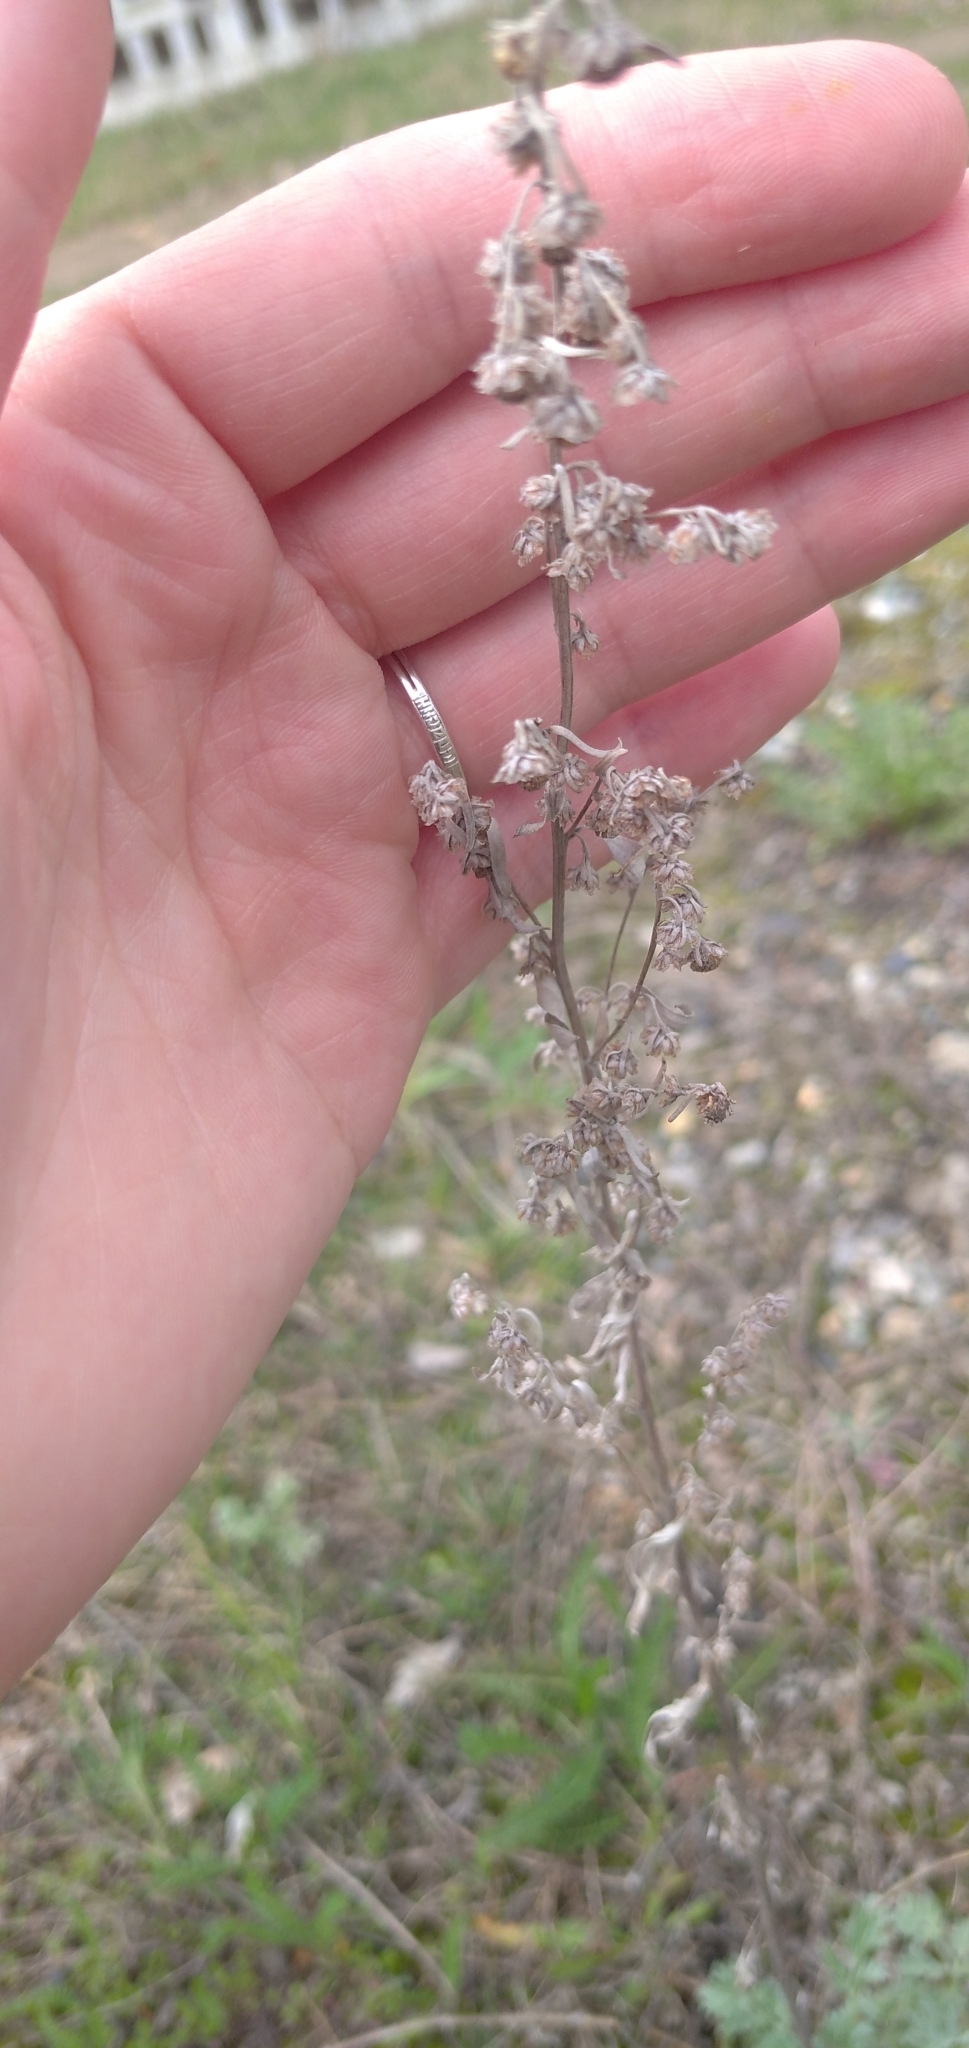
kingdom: Plantae
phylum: Tracheophyta
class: Magnoliopsida
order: Asterales
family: Asteraceae
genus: Artemisia
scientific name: Artemisia absinthium
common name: Wormwood
